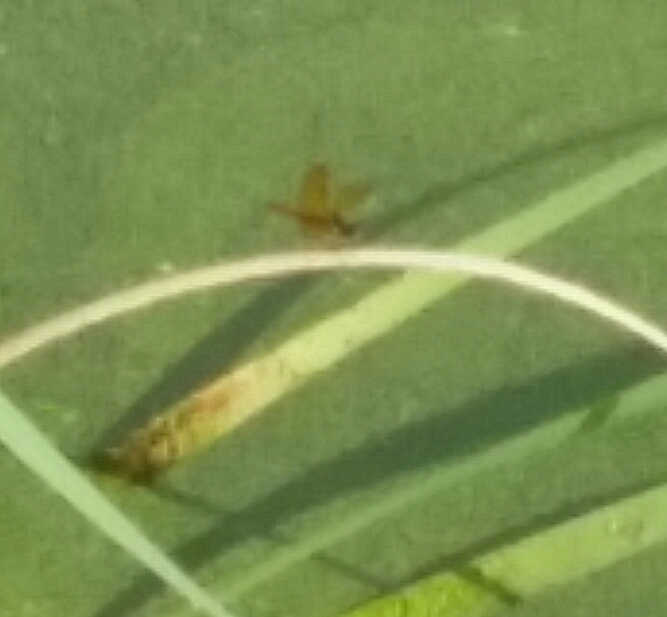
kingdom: Animalia
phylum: Arthropoda
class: Insecta
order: Odonata
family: Libellulidae
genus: Perithemis
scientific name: Perithemis tenera
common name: Eastern amberwing
